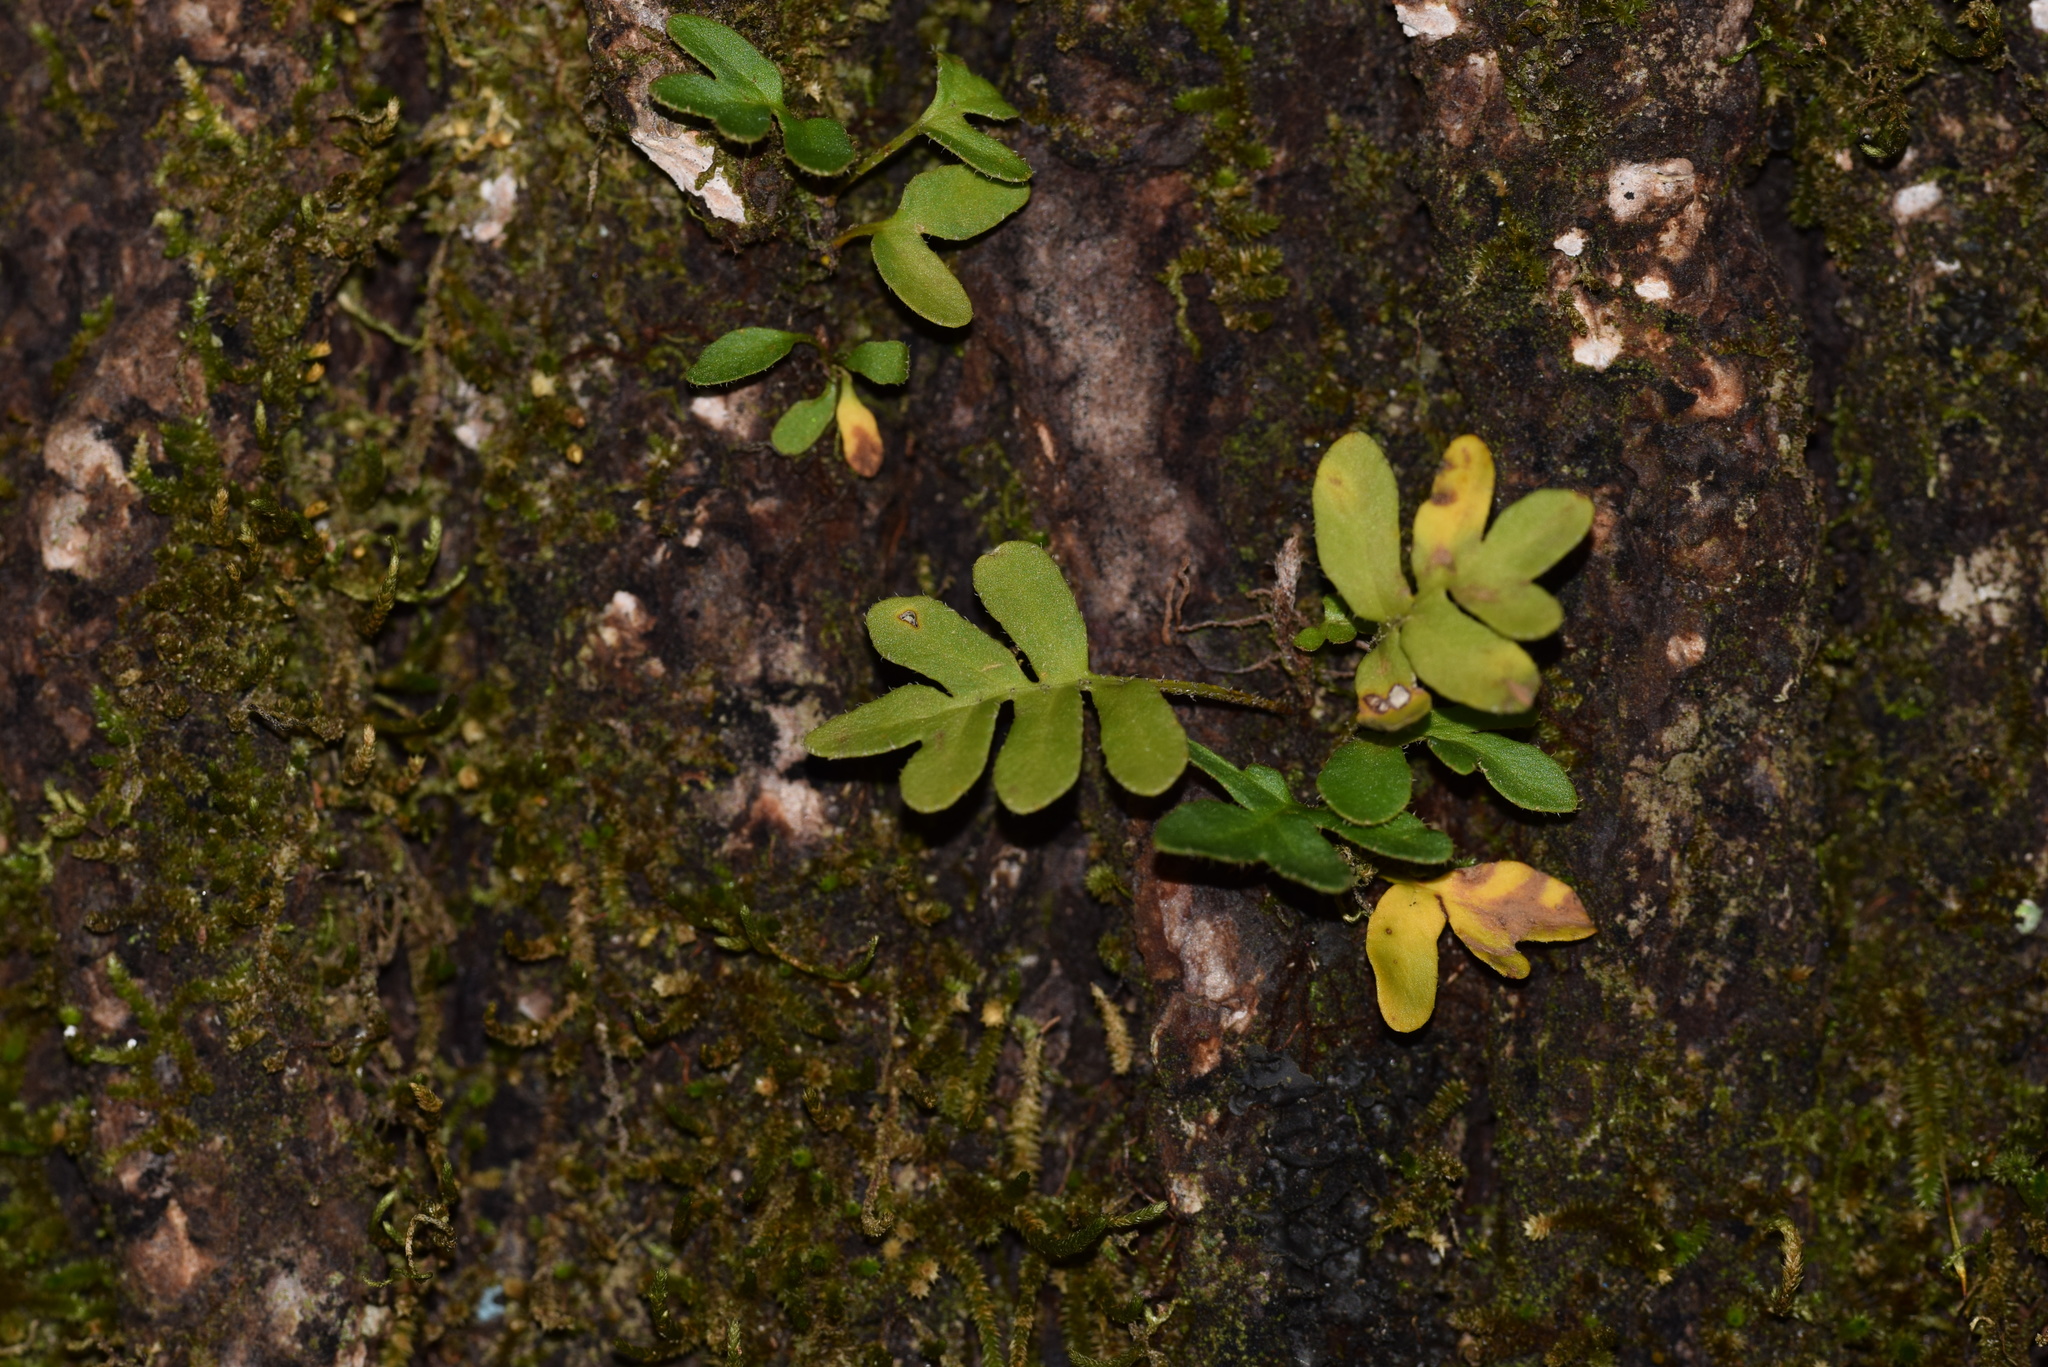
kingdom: Plantae
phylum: Tracheophyta
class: Polypodiopsida
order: Polypodiales
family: Polypodiaceae
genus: Pleopeltis
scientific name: Pleopeltis michauxiana
